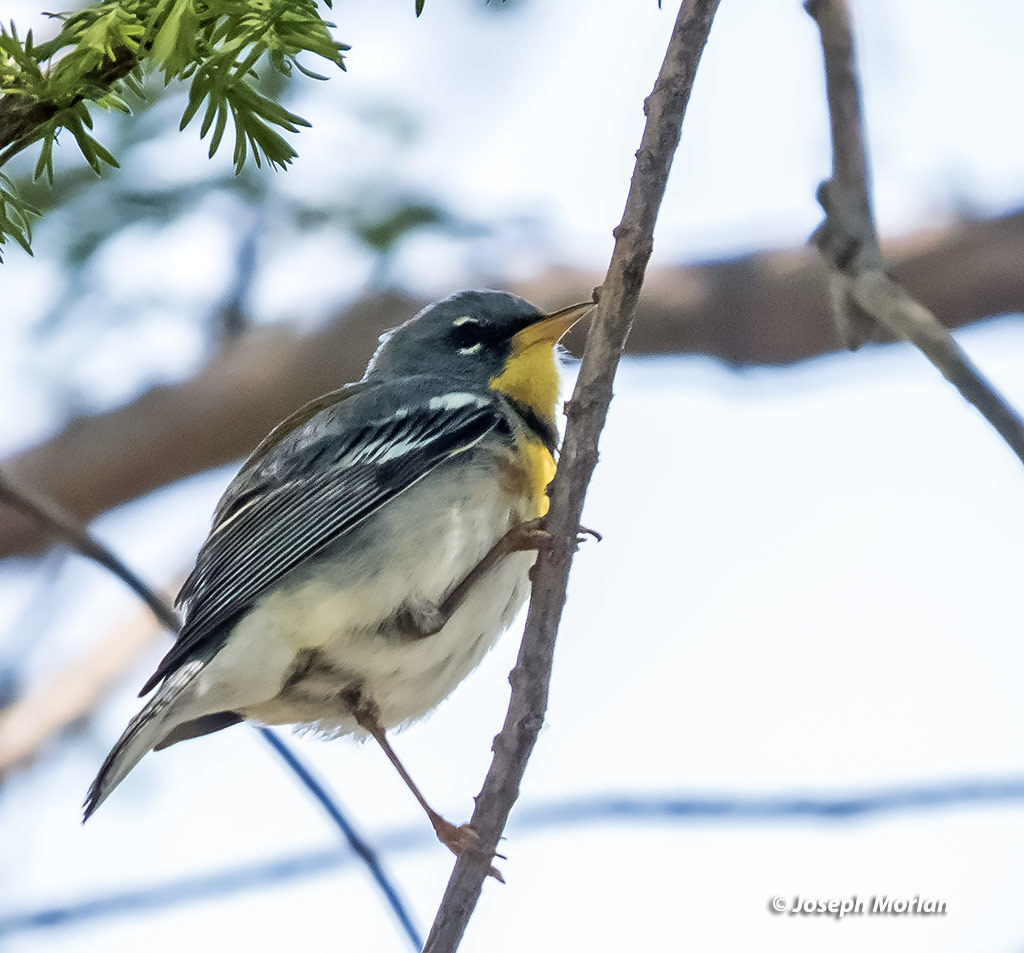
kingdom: Animalia
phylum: Chordata
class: Aves
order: Passeriformes
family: Parulidae
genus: Setophaga
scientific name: Setophaga americana
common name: Northern parula
